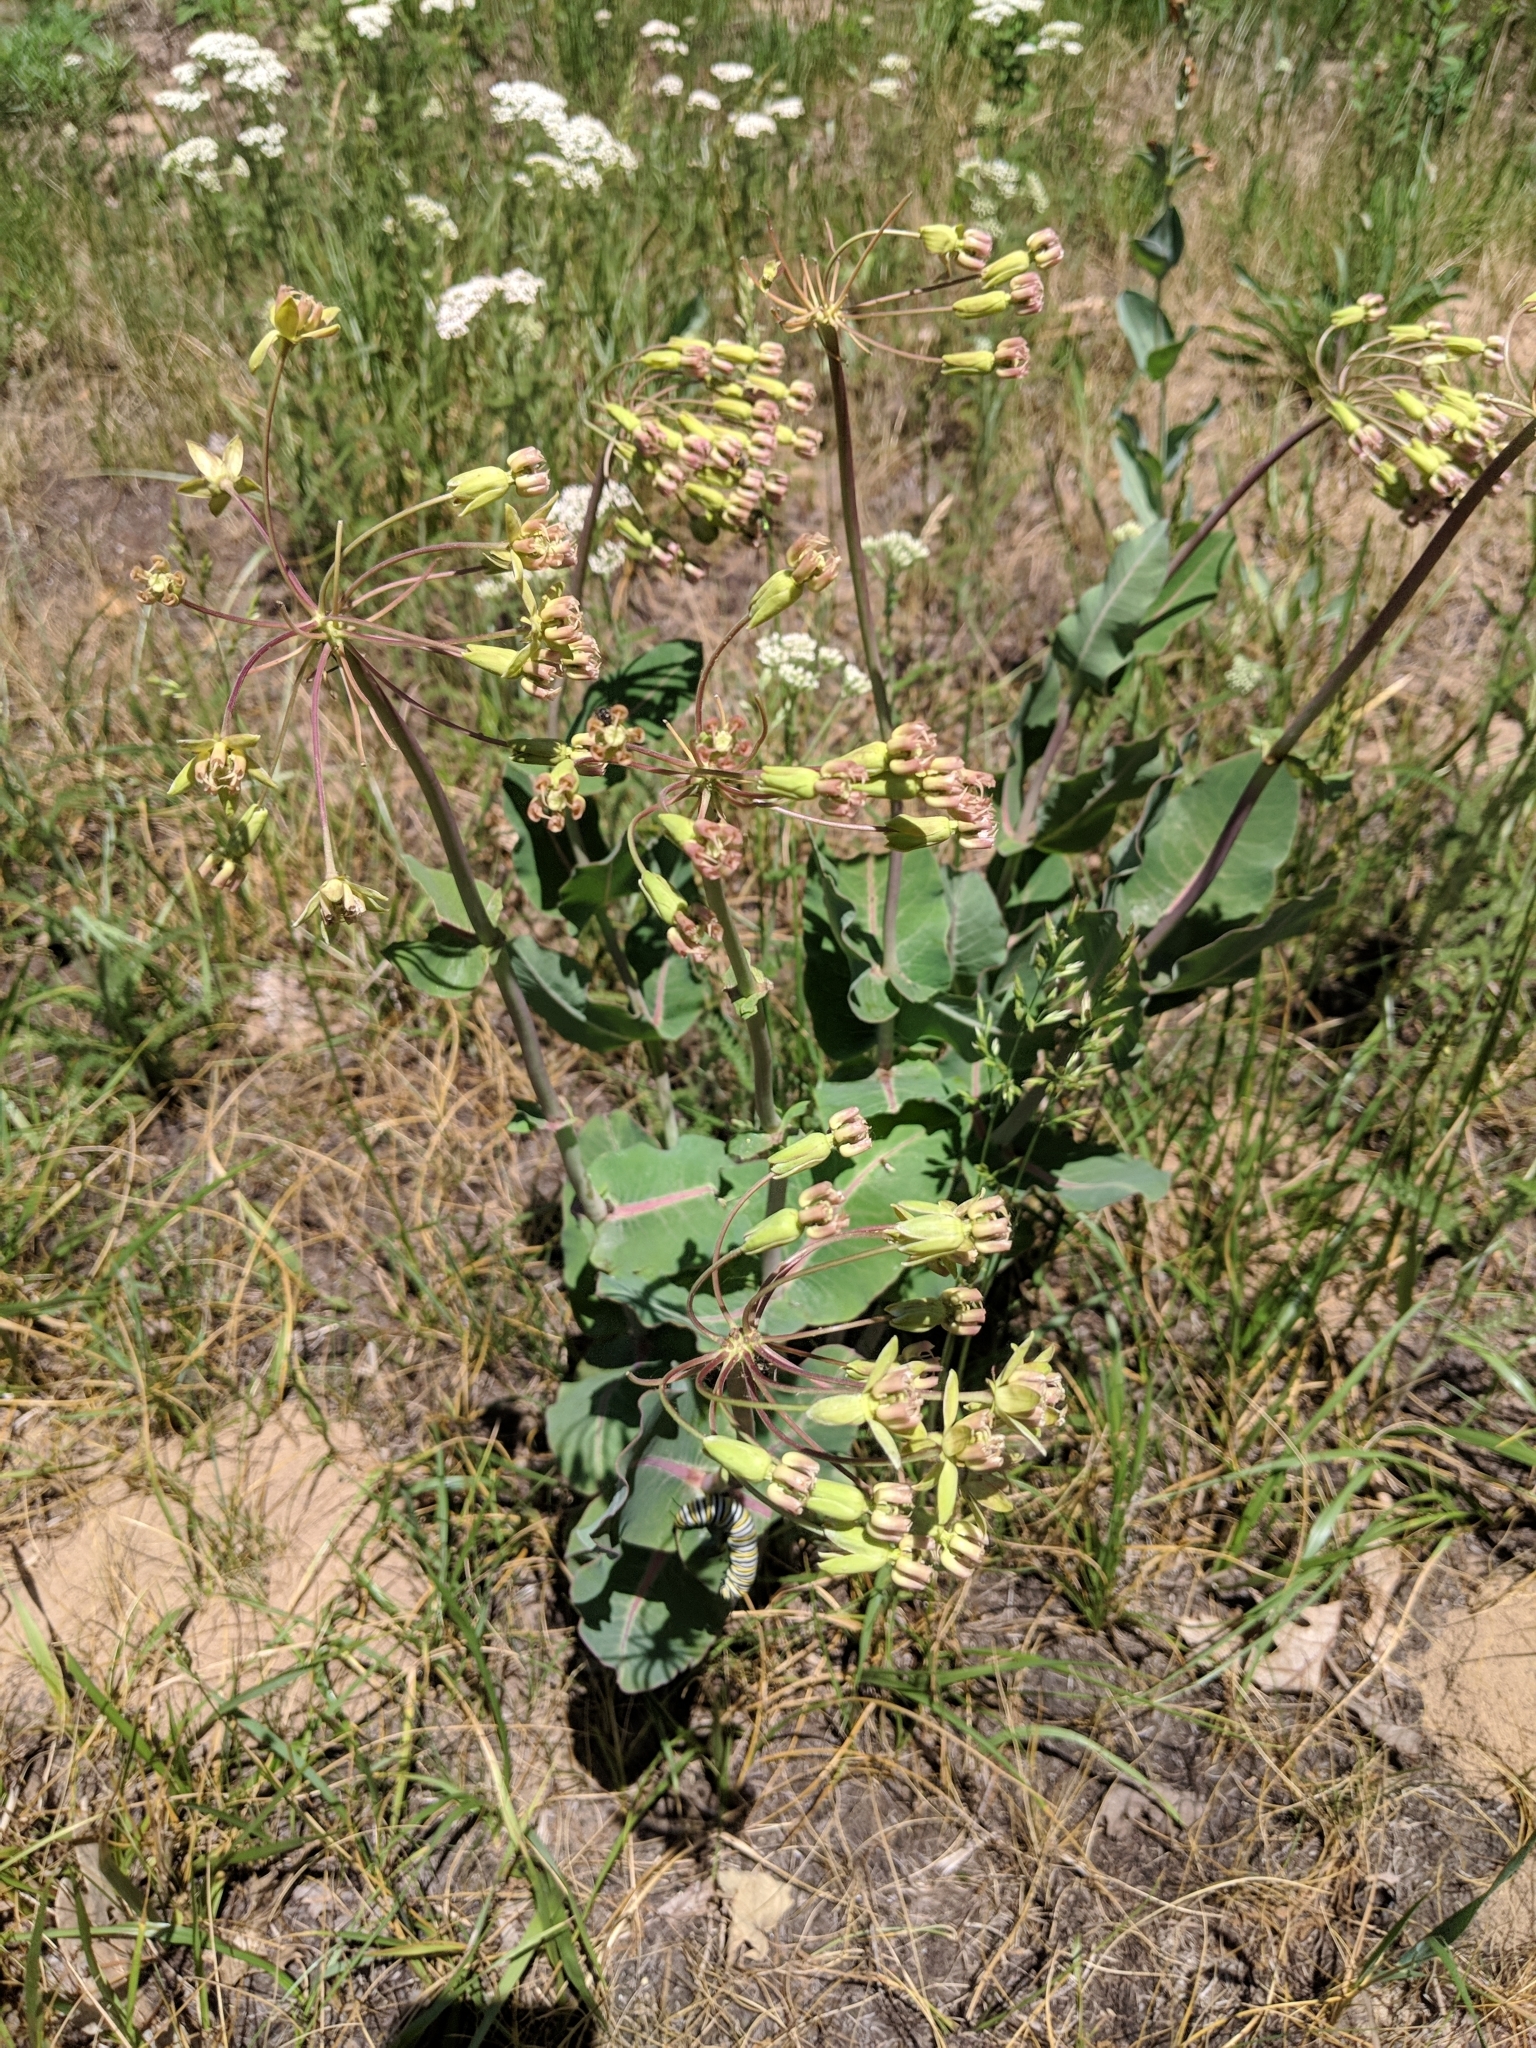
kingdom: Plantae
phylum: Tracheophyta
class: Magnoliopsida
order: Gentianales
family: Apocynaceae
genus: Asclepias
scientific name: Asclepias amplexicaulis
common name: Blunt-leaf milkweed
